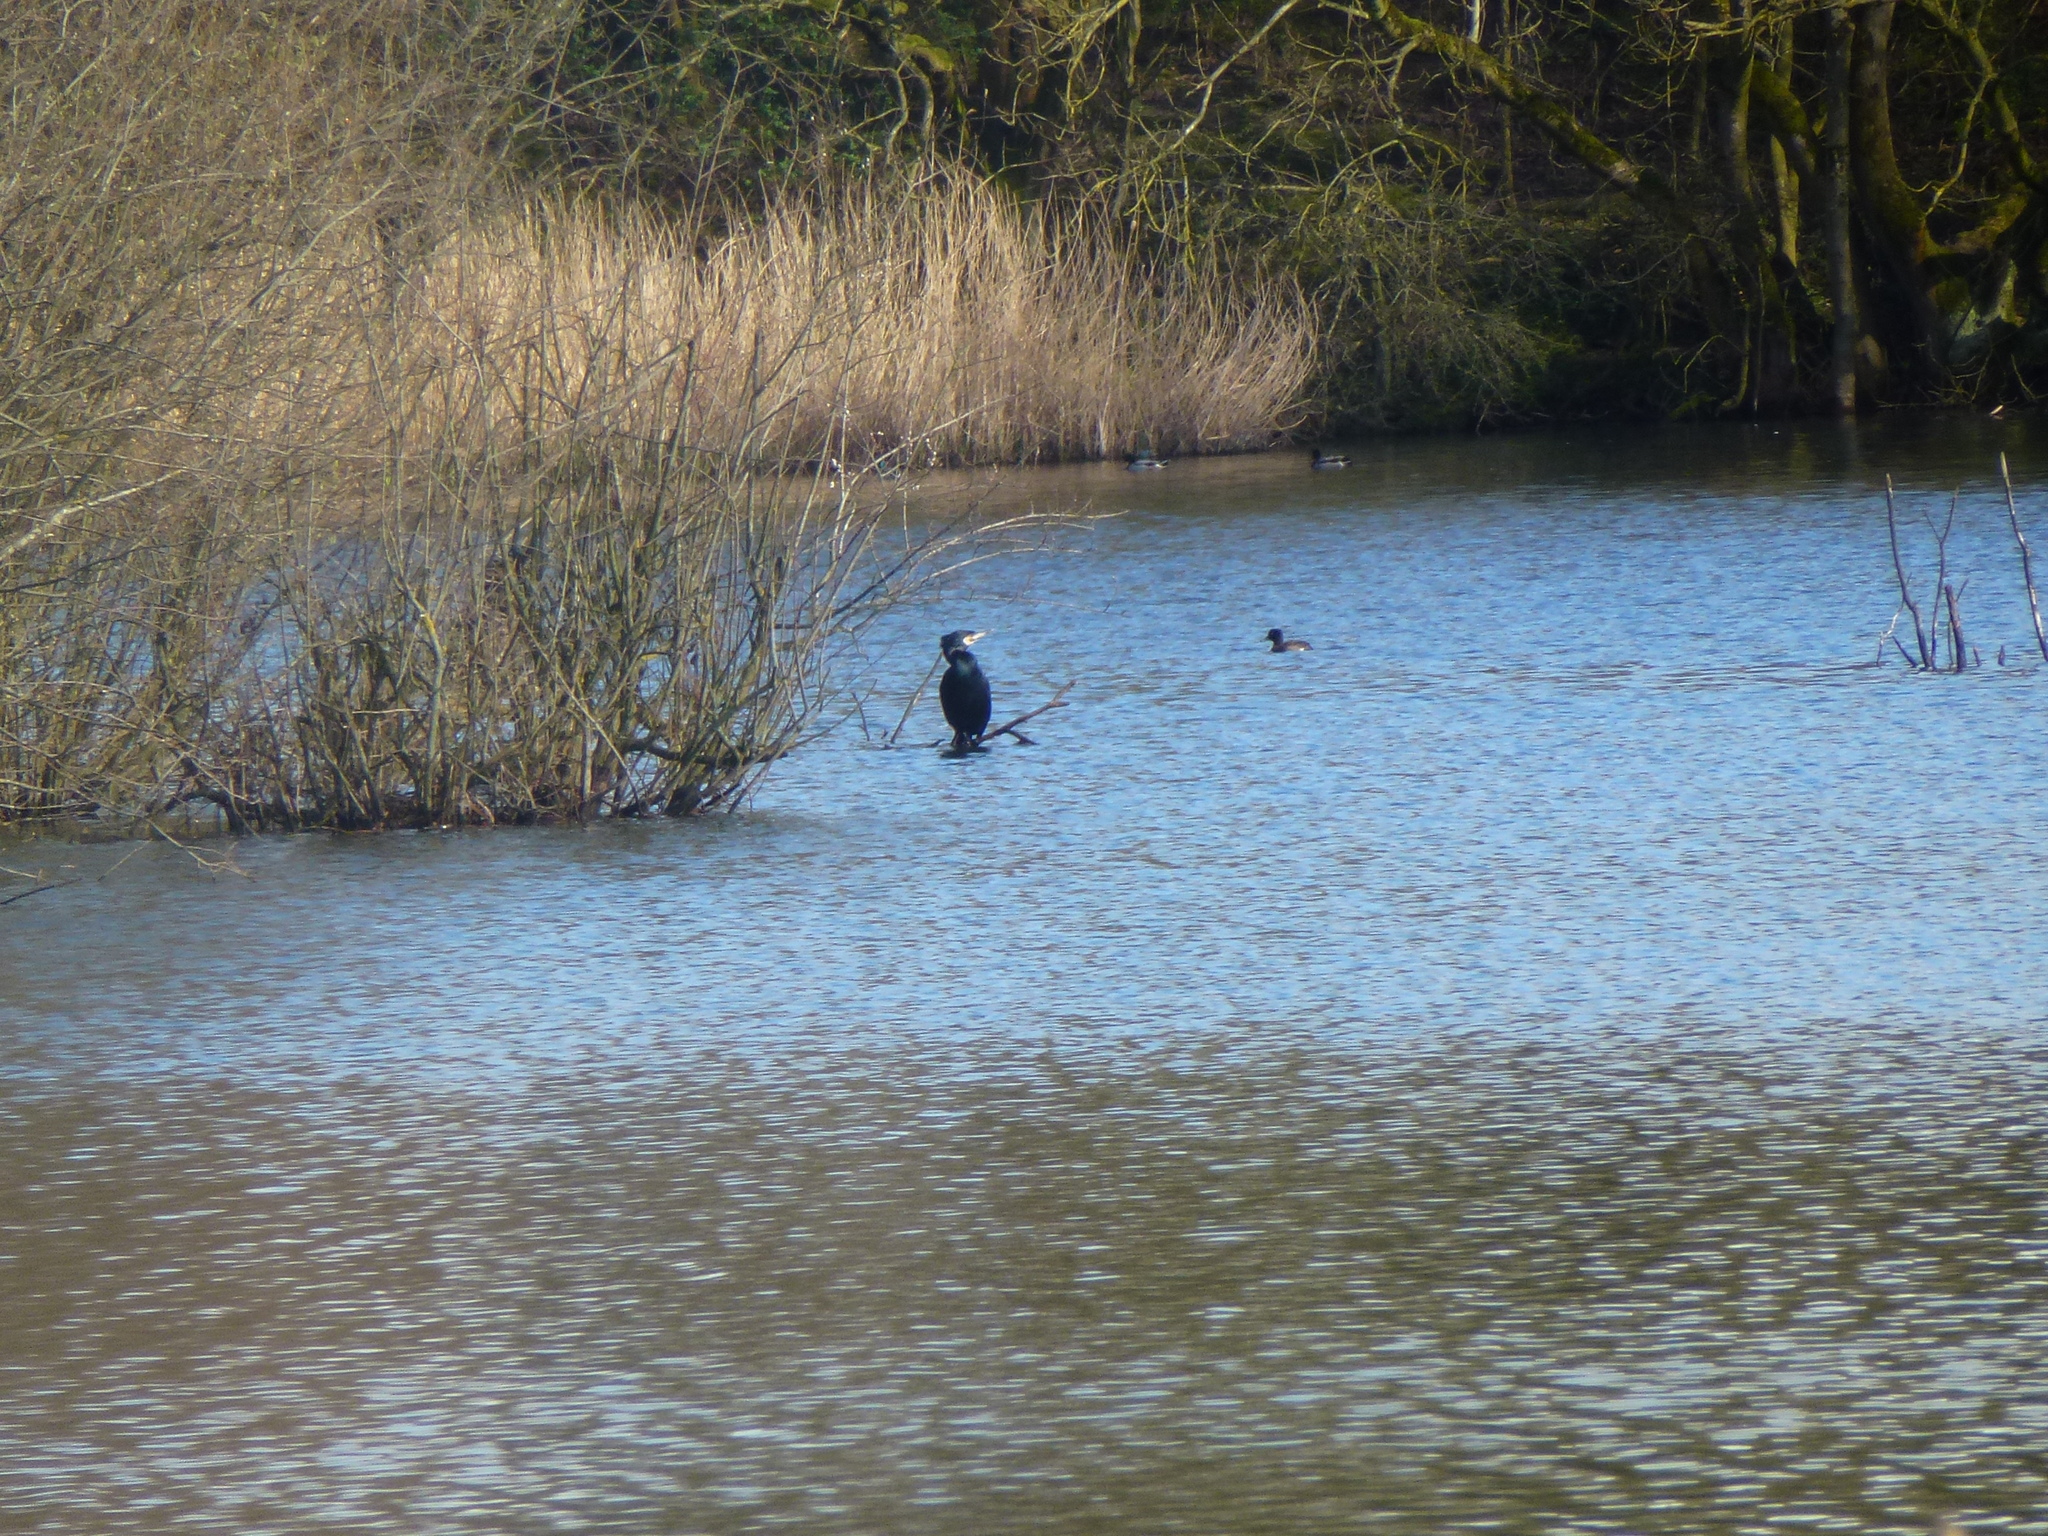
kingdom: Animalia
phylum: Chordata
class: Aves
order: Suliformes
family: Phalacrocoracidae
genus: Phalacrocorax
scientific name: Phalacrocorax carbo
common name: Great cormorant
